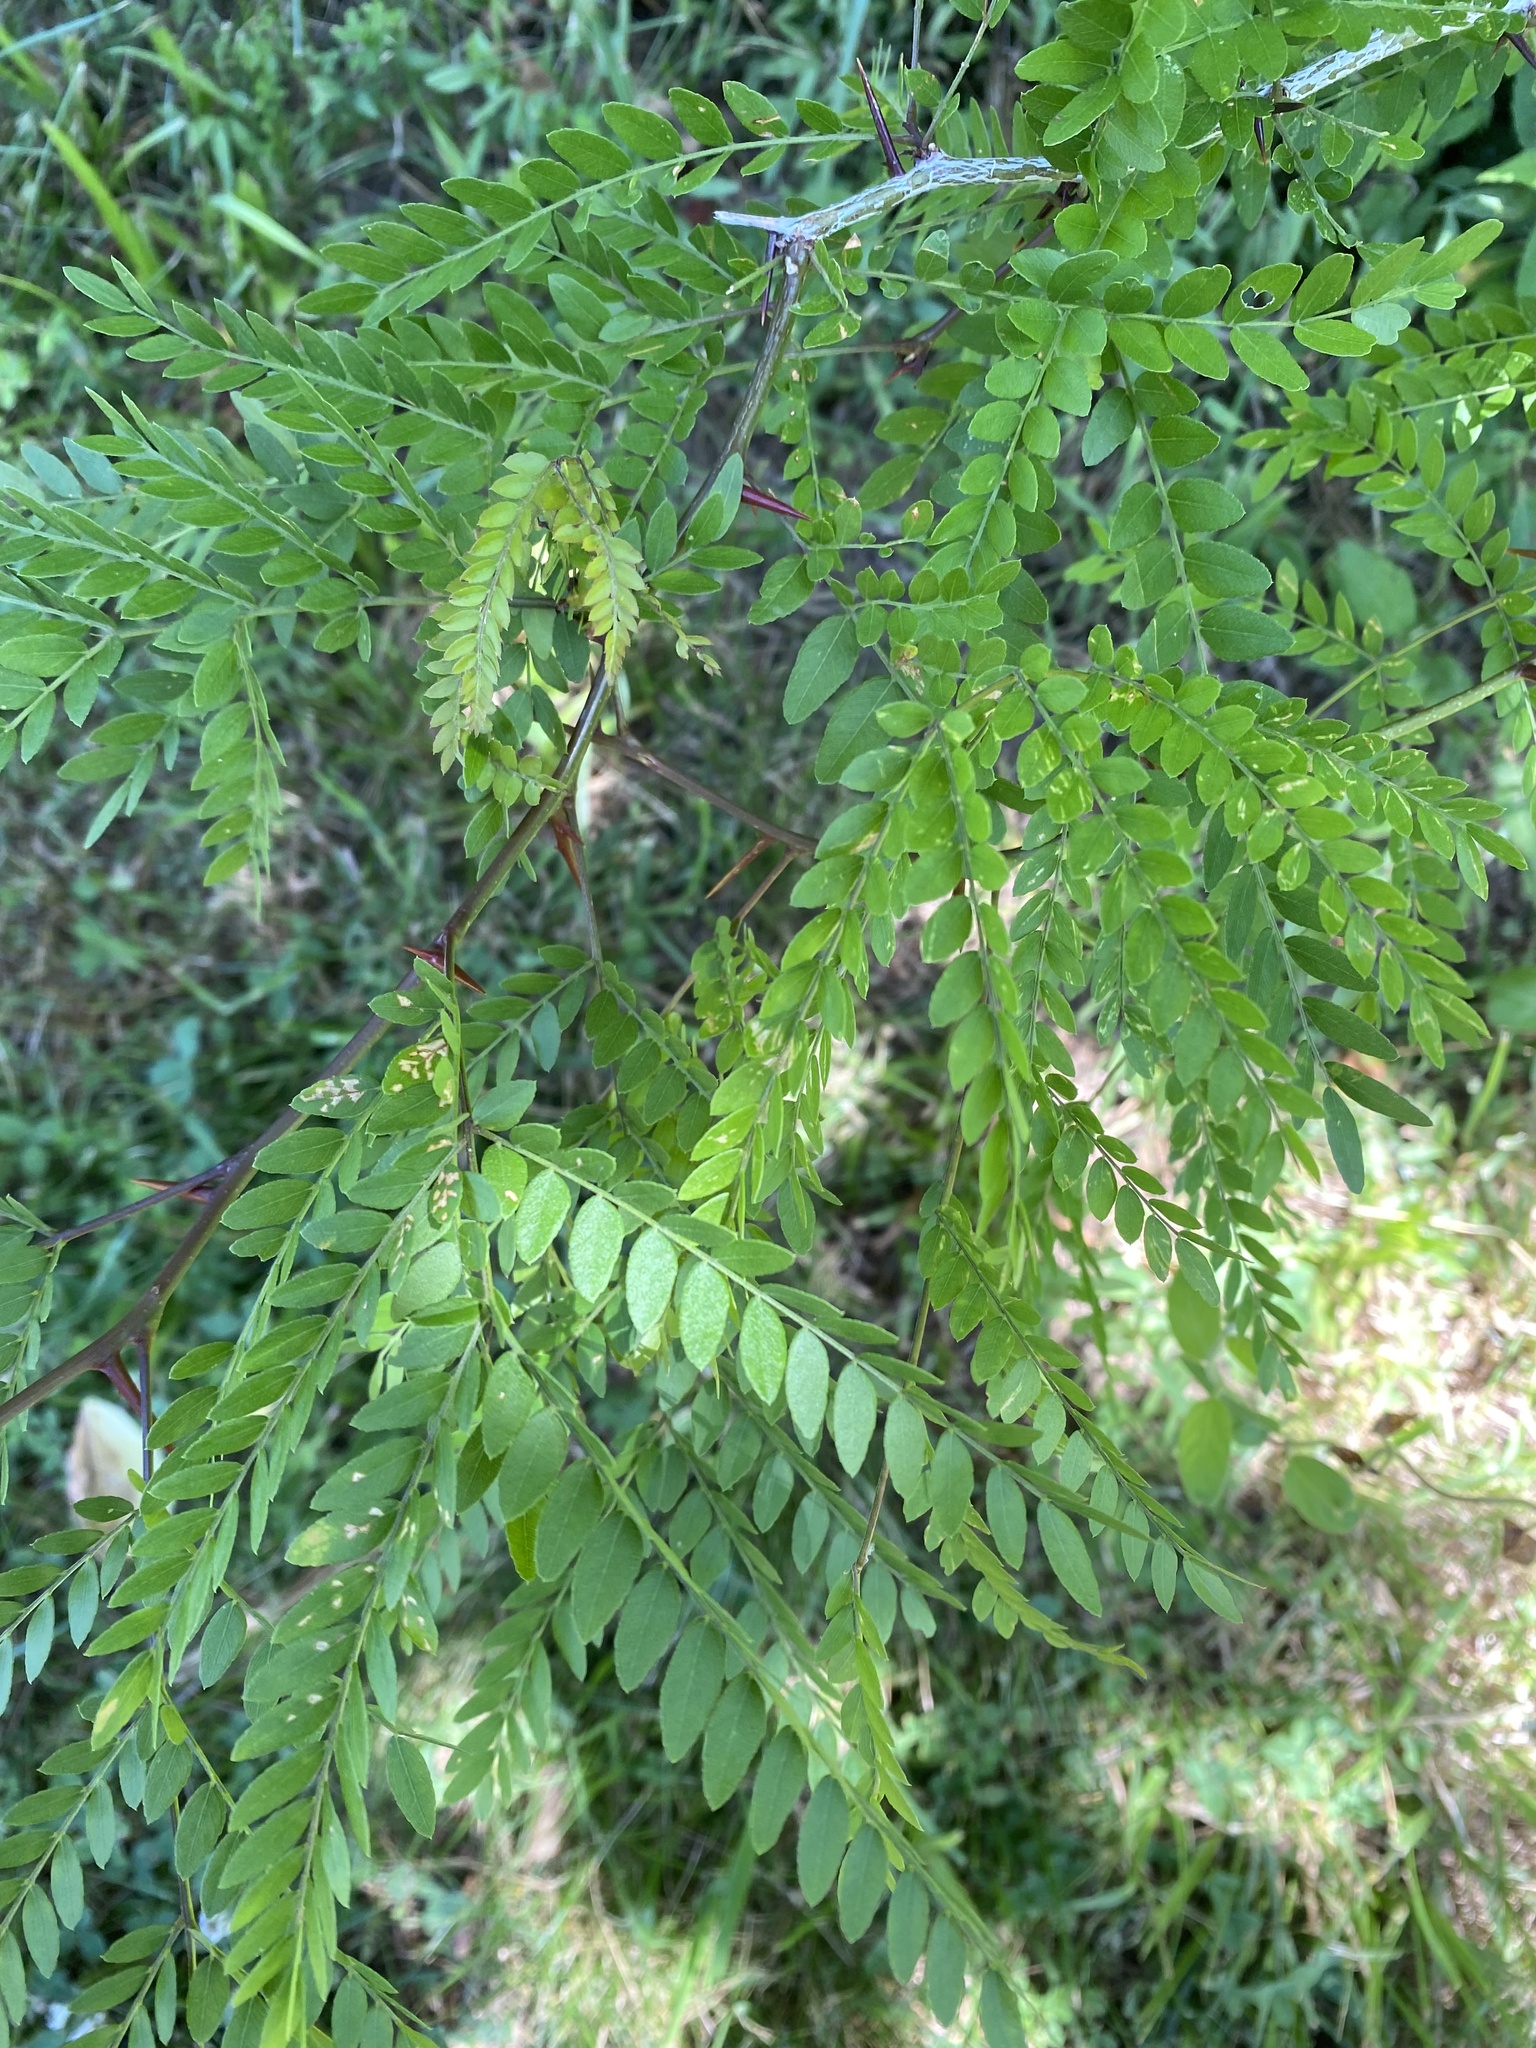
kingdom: Plantae
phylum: Tracheophyta
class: Magnoliopsida
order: Fabales
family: Fabaceae
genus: Gleditsia
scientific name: Gleditsia triacanthos
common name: Common honeylocust
